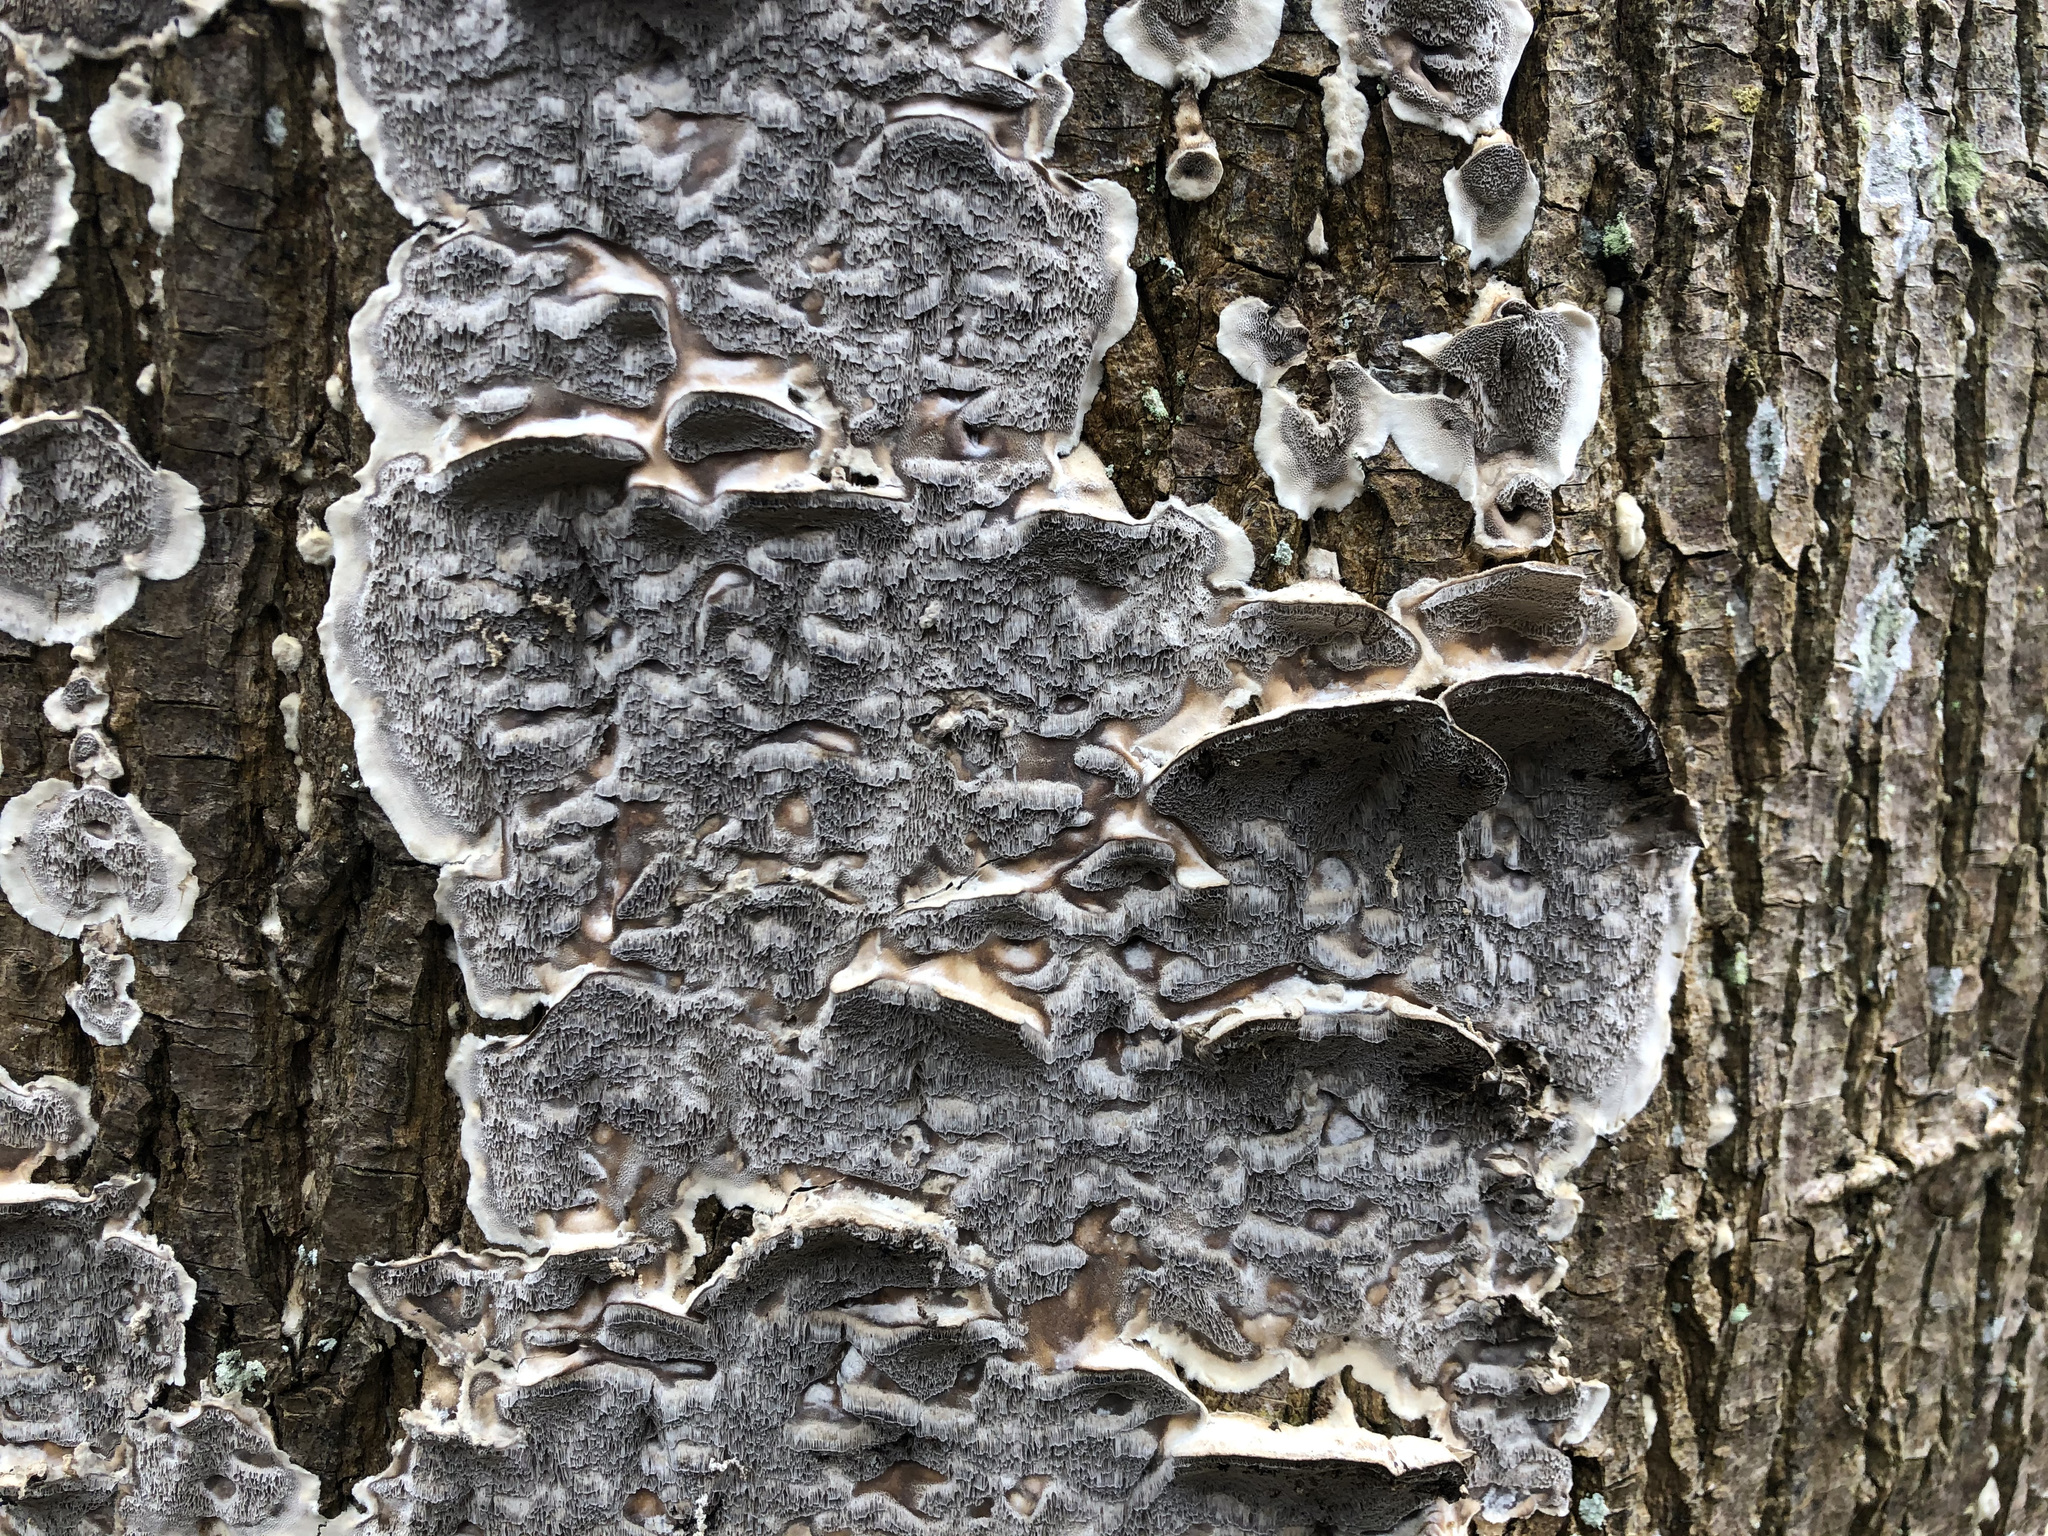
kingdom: Fungi
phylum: Basidiomycota
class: Agaricomycetes
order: Polyporales
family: Phanerochaetaceae
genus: Bjerkandera
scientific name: Bjerkandera adusta
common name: Smoky bracket
